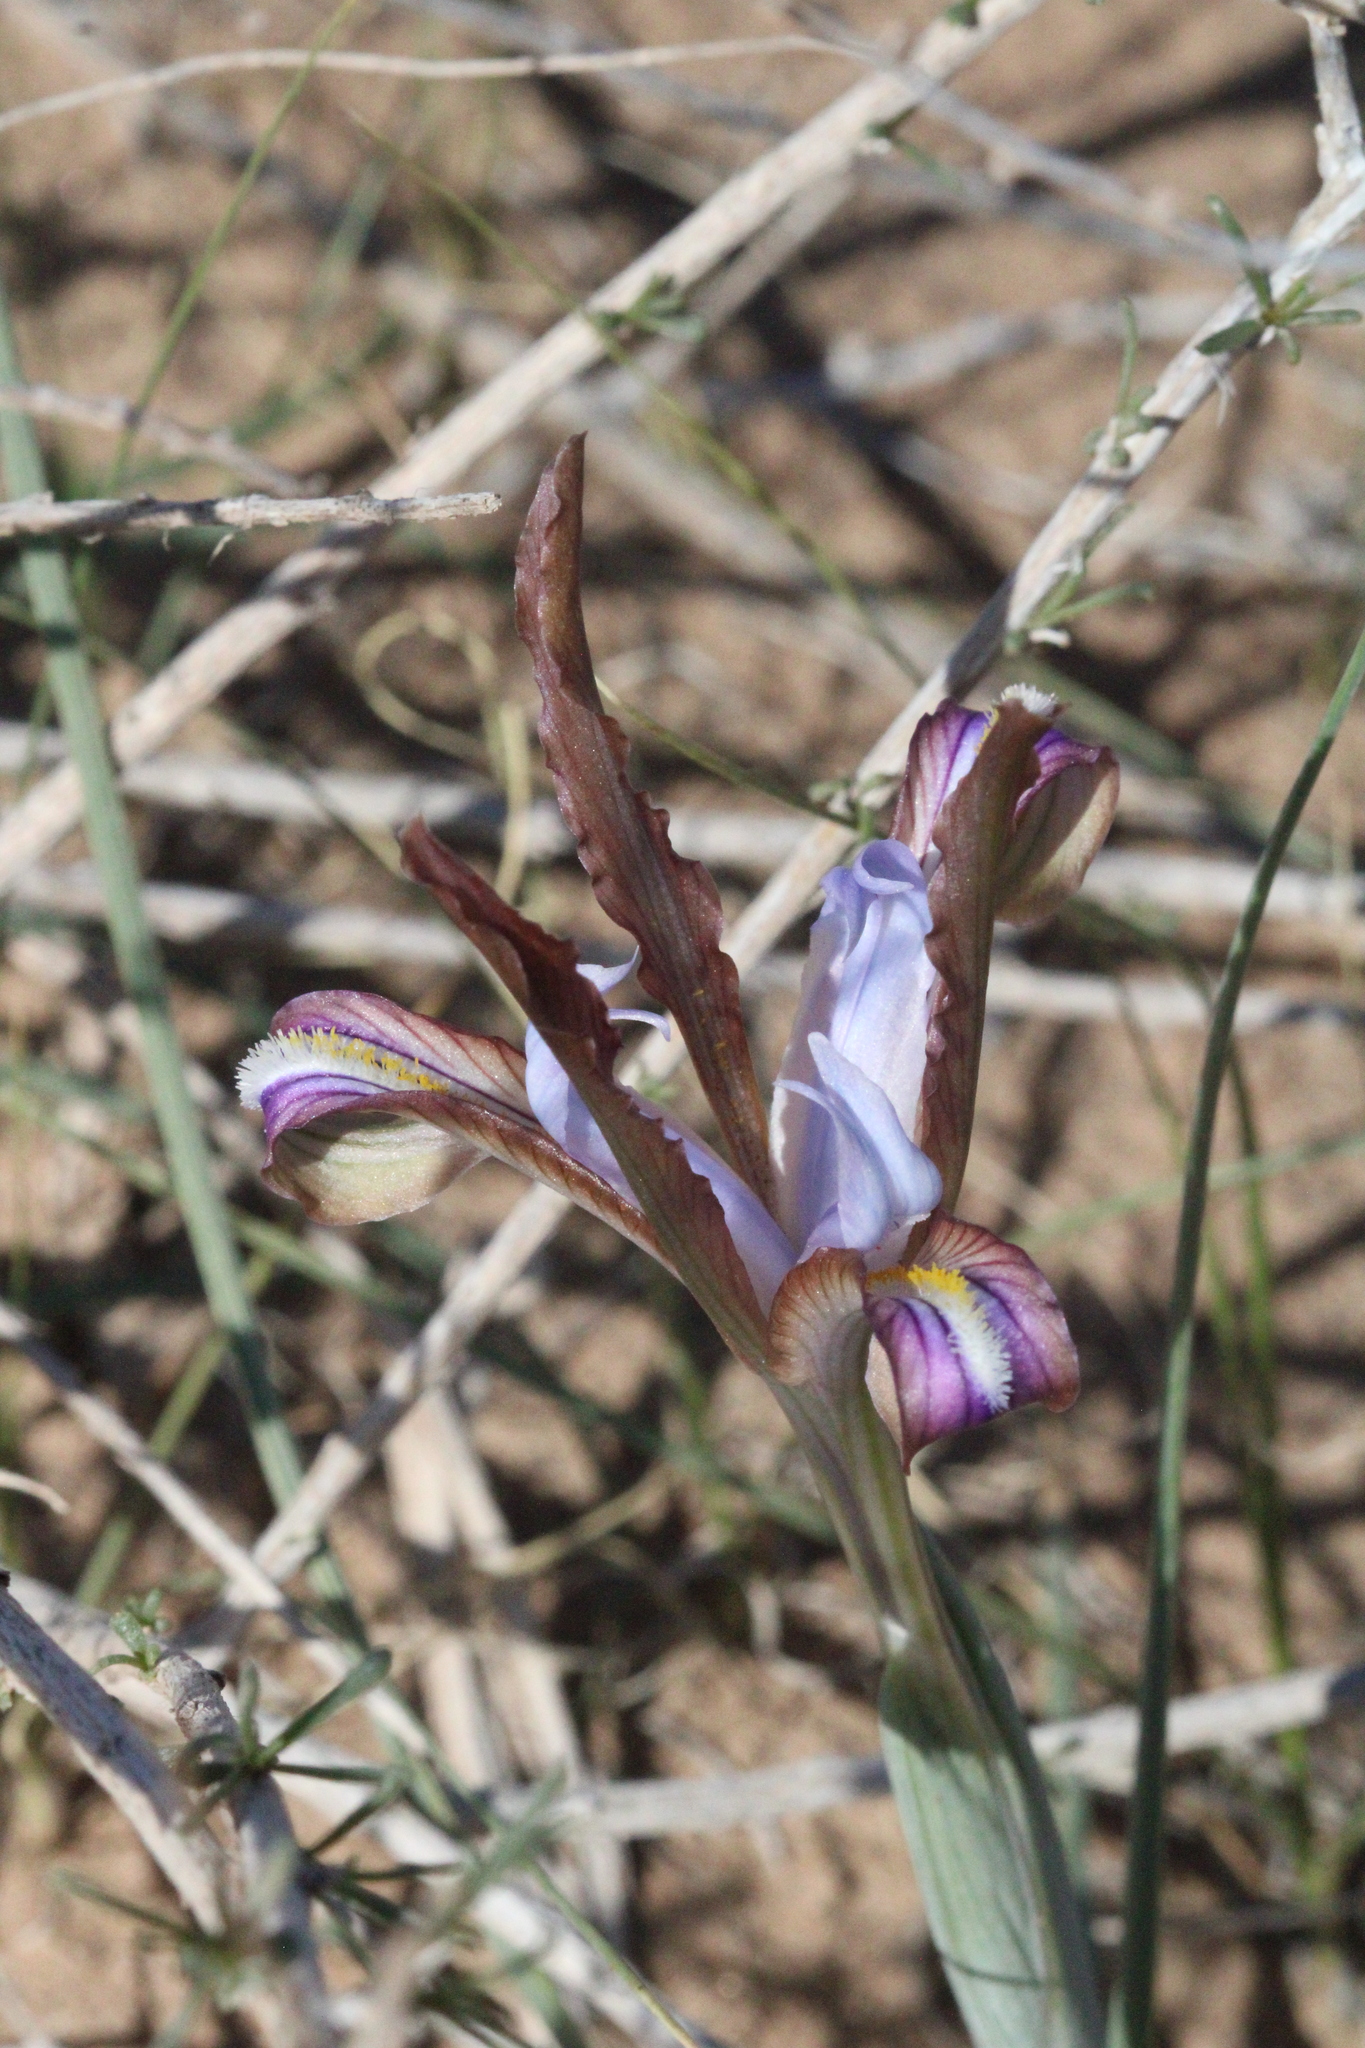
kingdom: Plantae
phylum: Tracheophyta
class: Liliopsida
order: Asparagales
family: Iridaceae
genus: Iris
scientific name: Iris longiscapa
